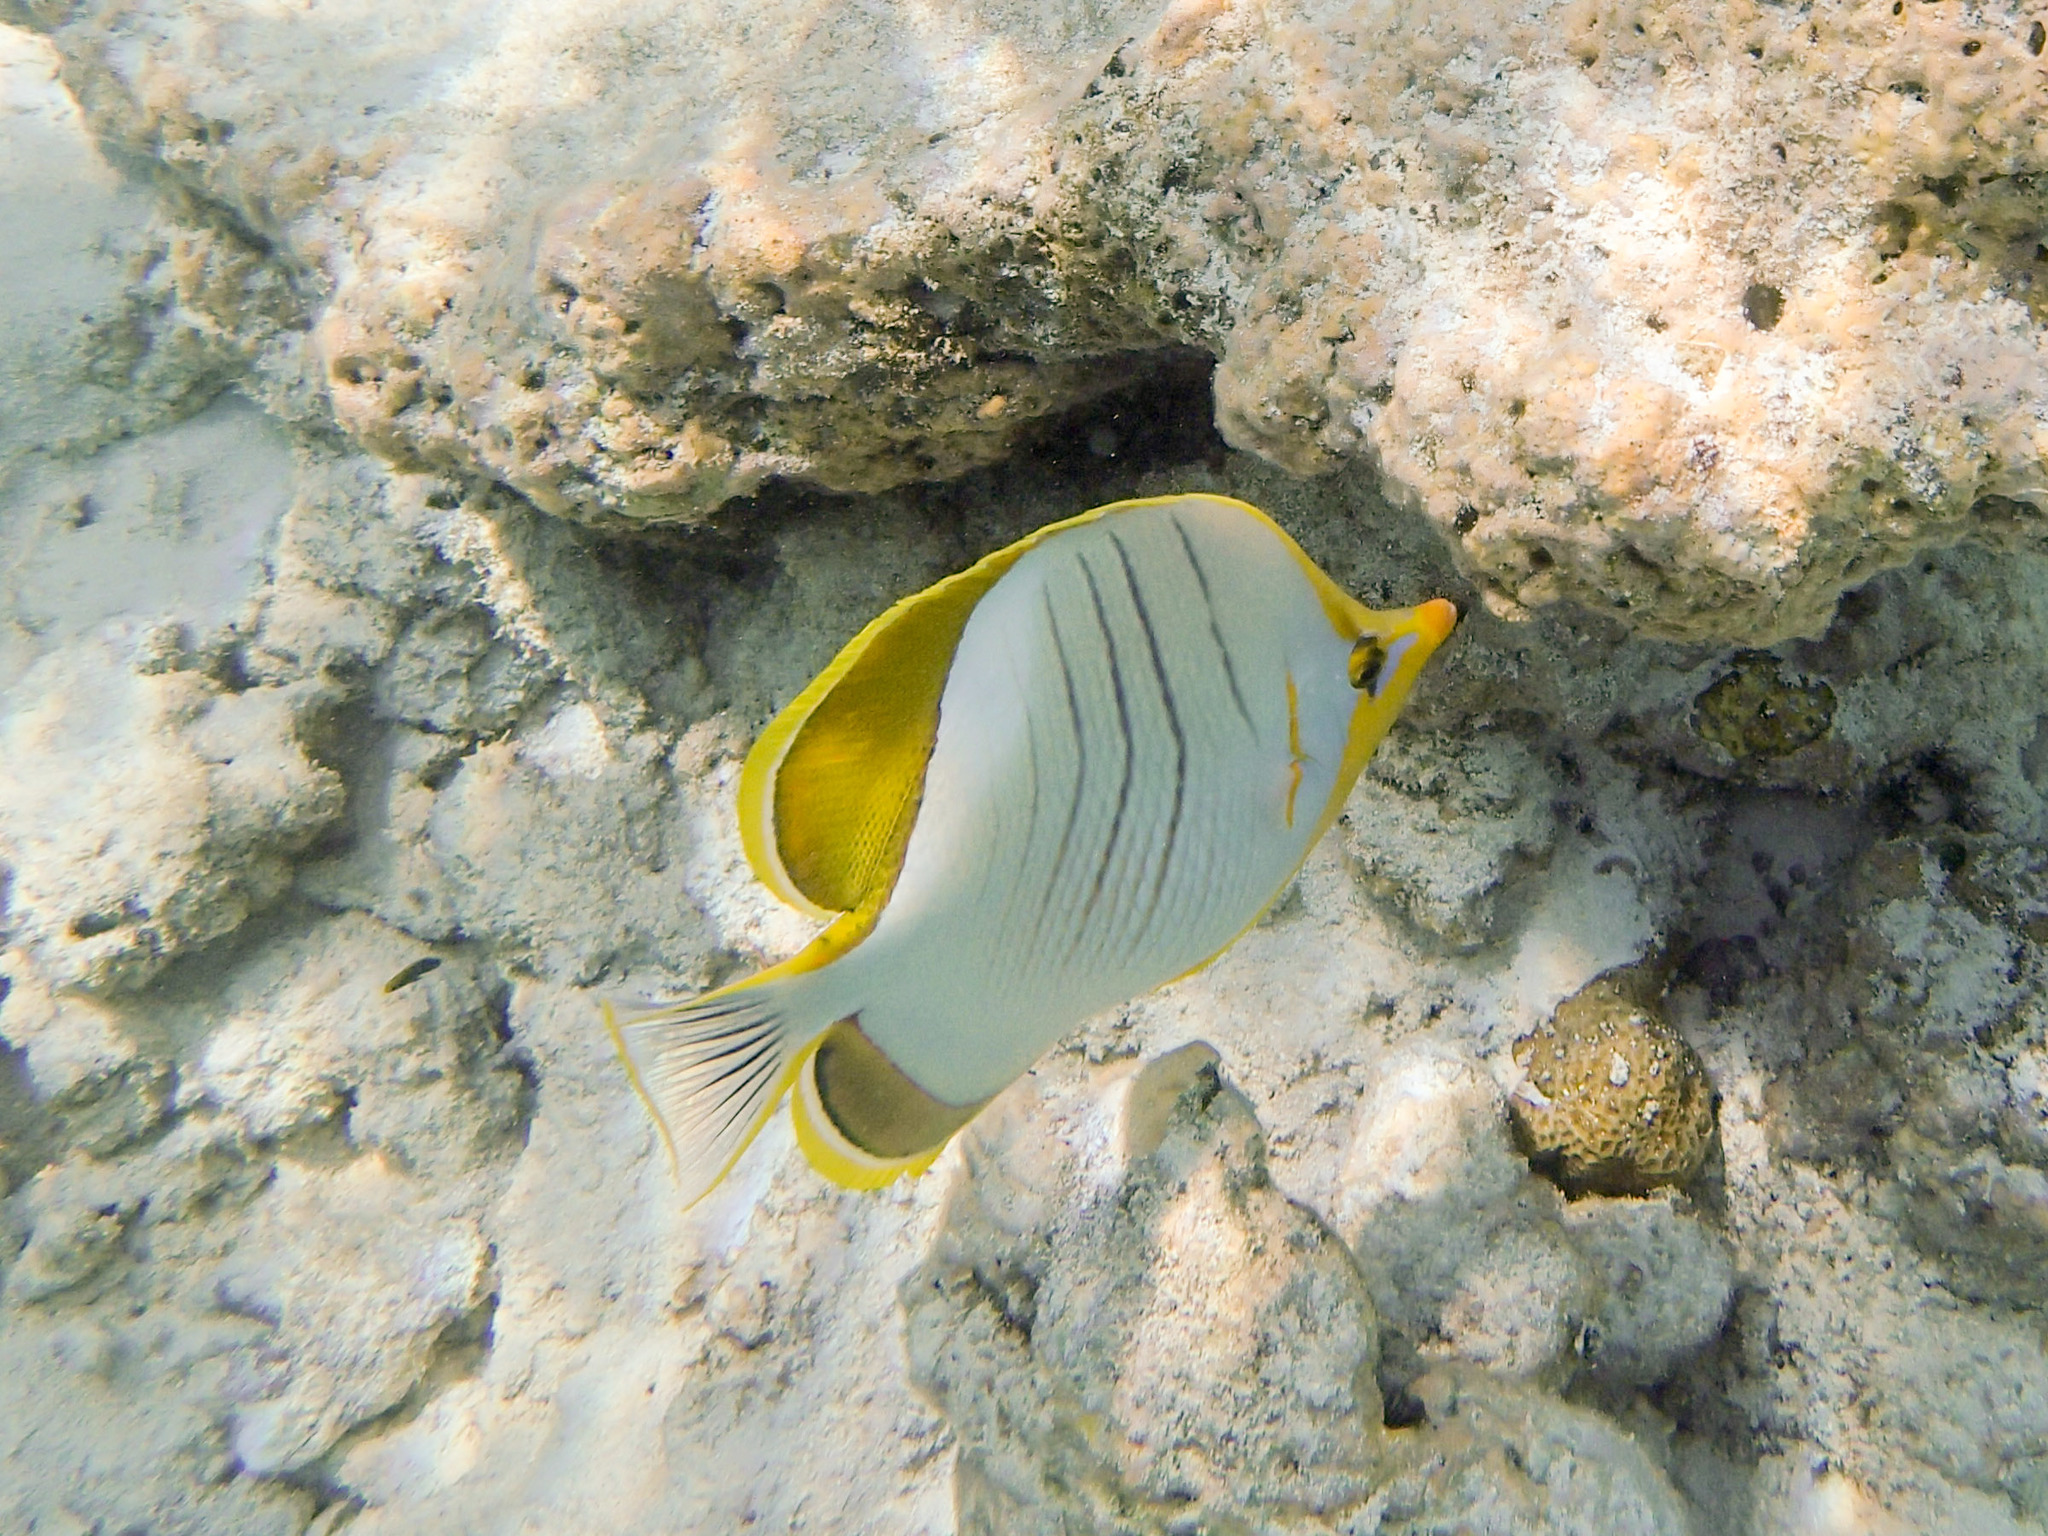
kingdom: Animalia
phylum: Chordata
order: Perciformes
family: Chaetodontidae
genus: Chaetodon
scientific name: Chaetodon xanthocephalus
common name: Yellowhead butterflyfish
